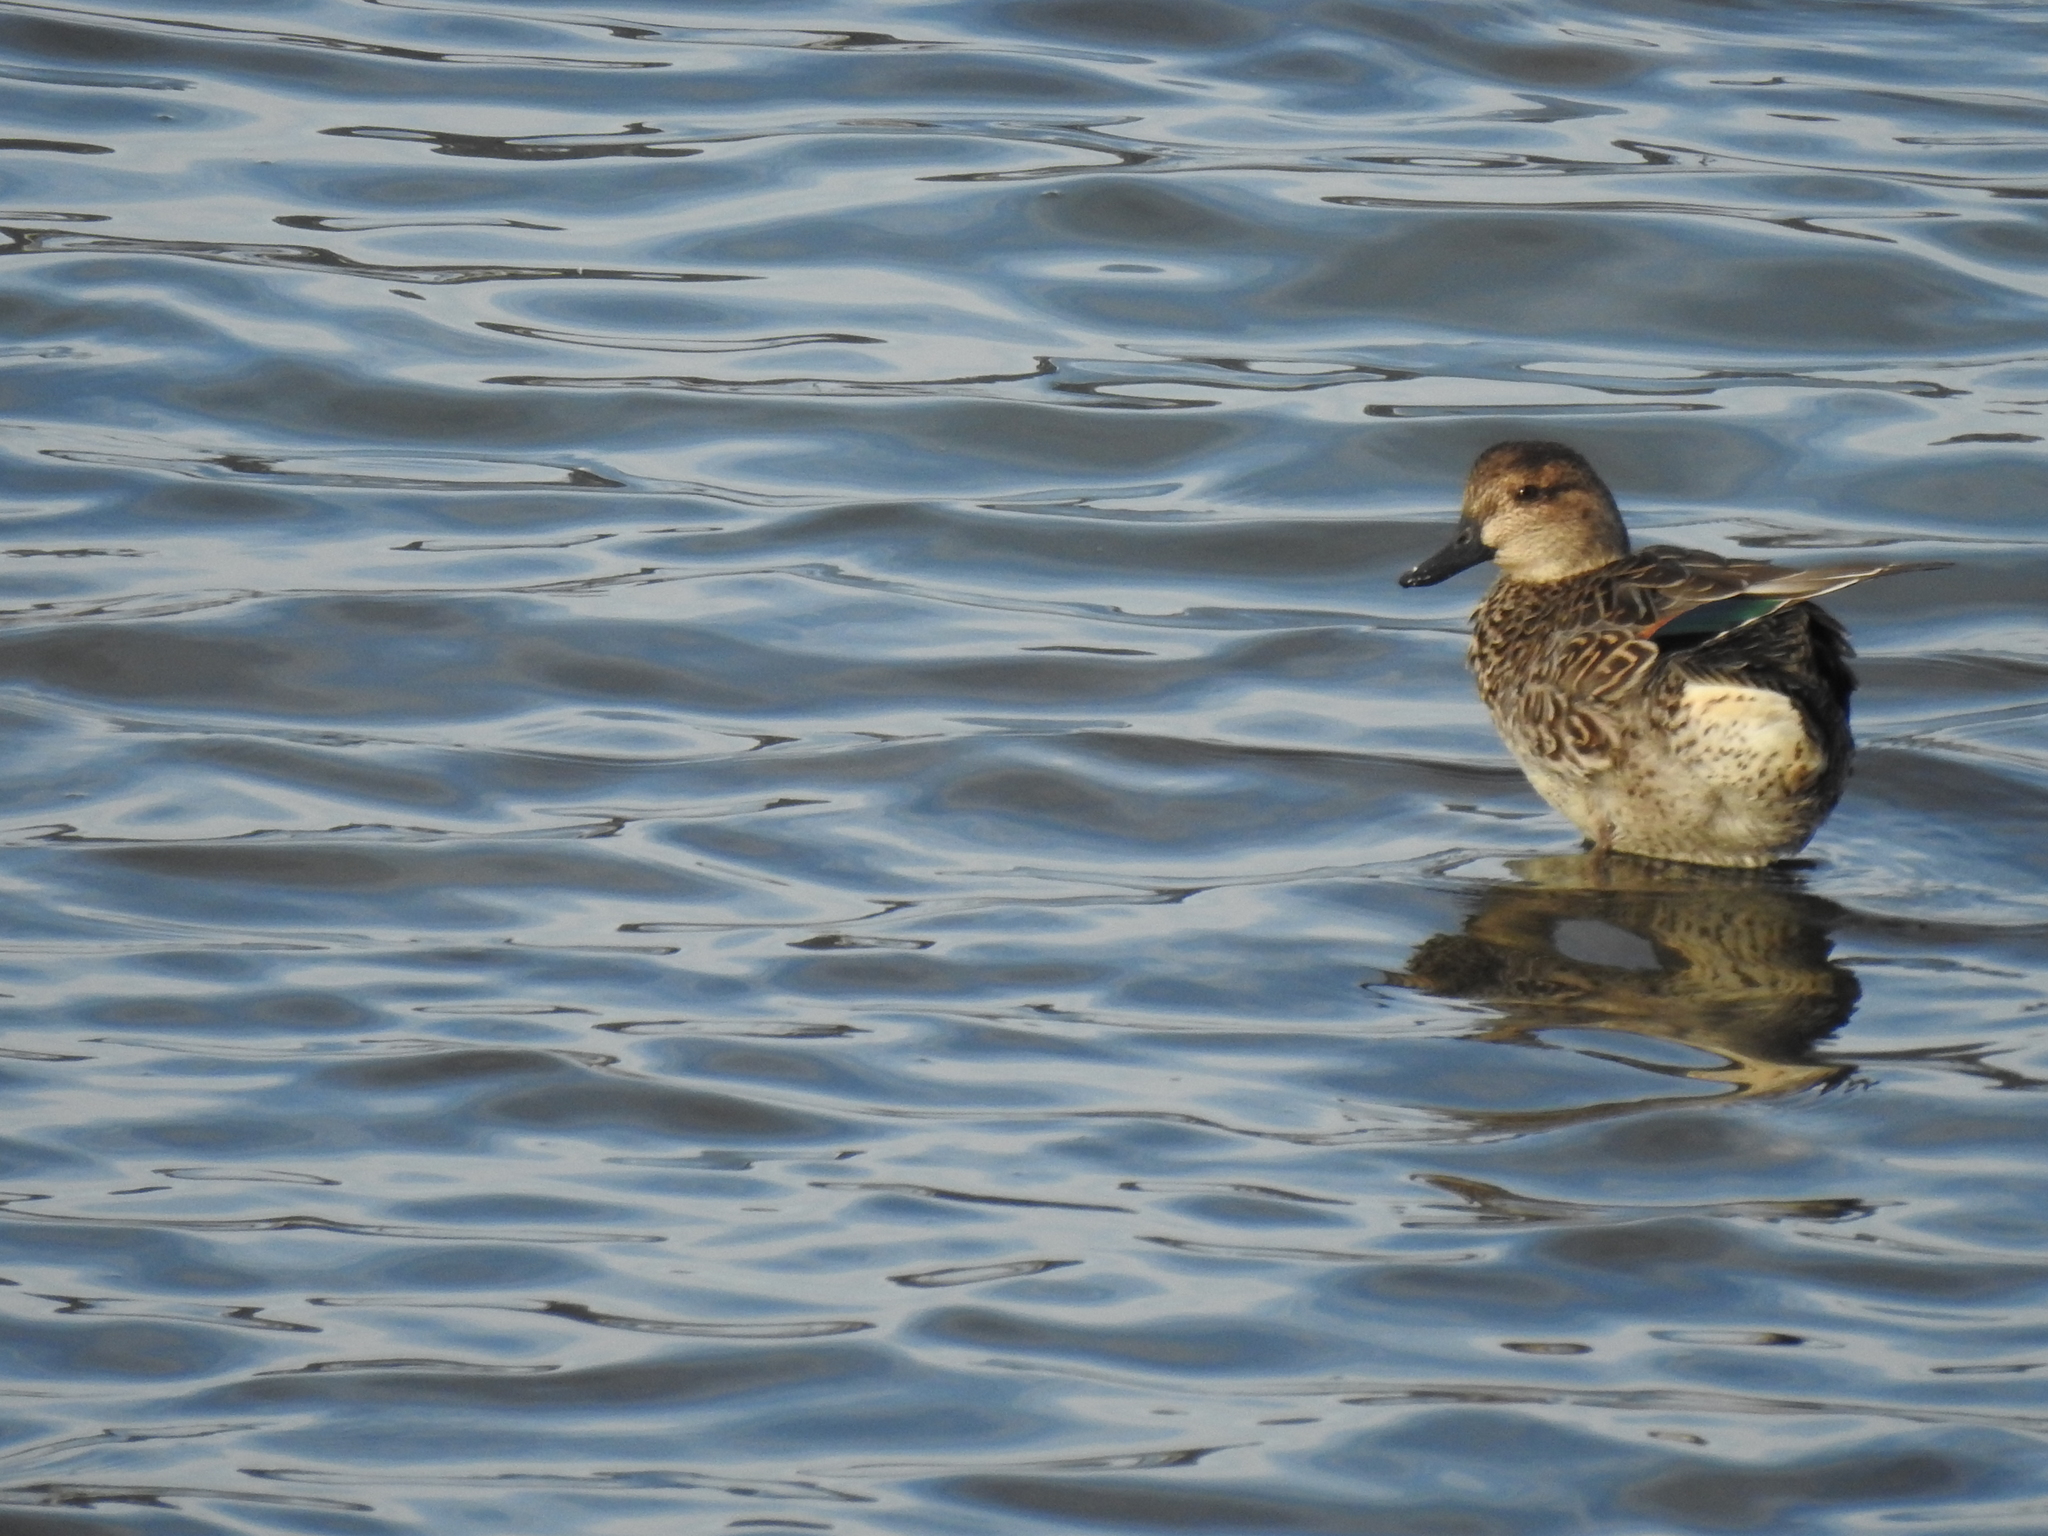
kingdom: Animalia
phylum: Chordata
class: Aves
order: Anseriformes
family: Anatidae
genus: Anas
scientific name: Anas carolinensis
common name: Green-winged teal
